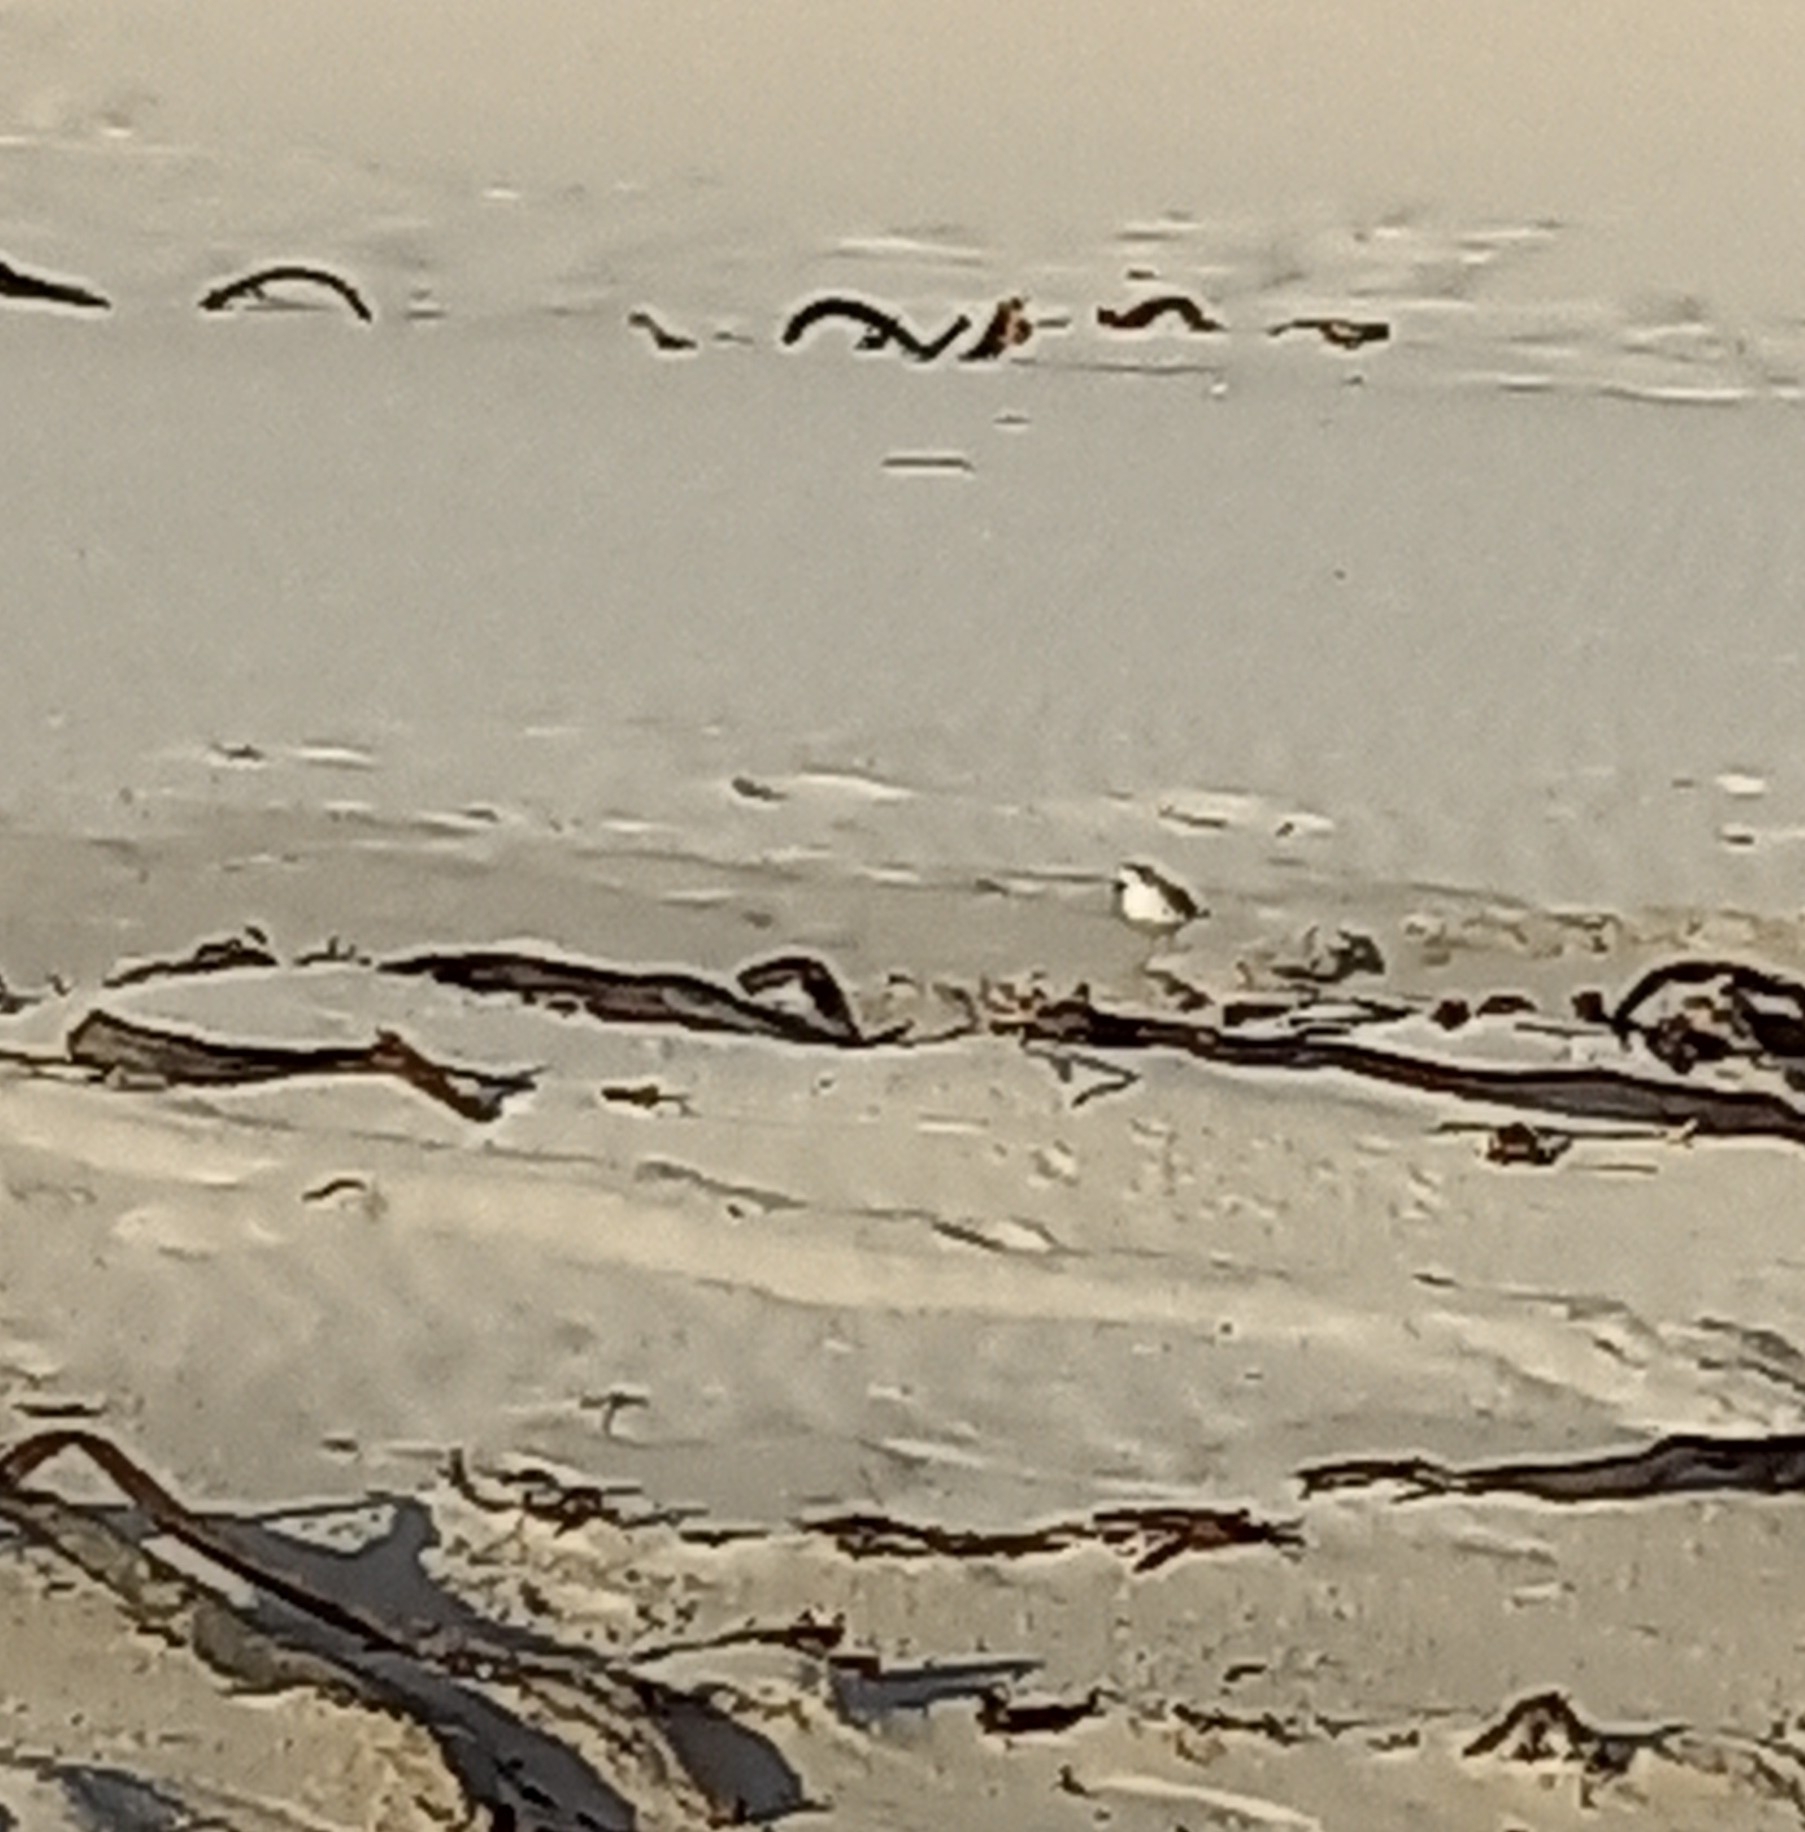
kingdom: Animalia
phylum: Chordata
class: Aves
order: Charadriiformes
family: Charadriidae
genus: Anarhynchus
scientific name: Anarhynchus
